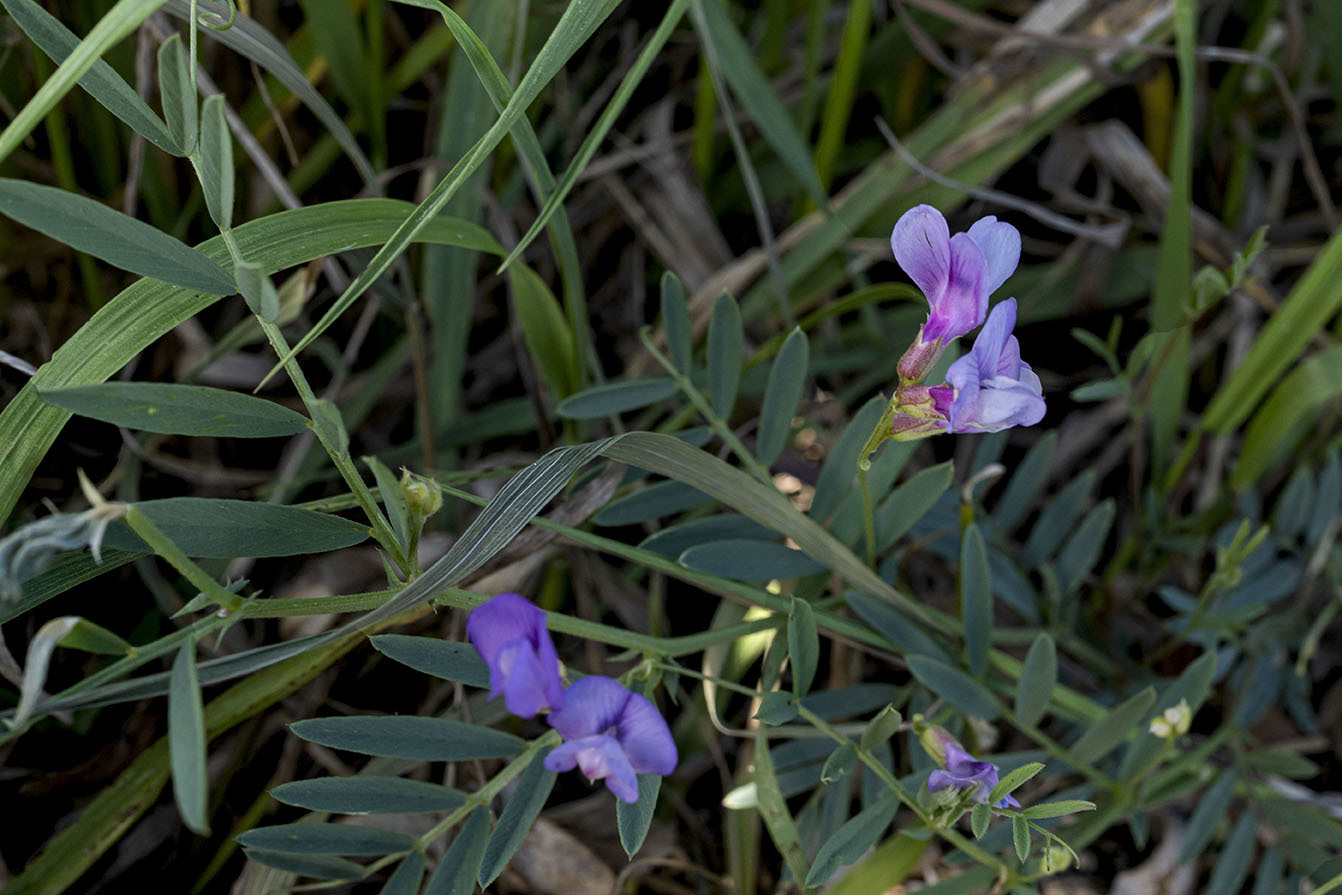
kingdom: Plantae
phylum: Tracheophyta
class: Magnoliopsida
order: Fabales
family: Fabaceae
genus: Vicia
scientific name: Vicia americana
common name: American vetch
